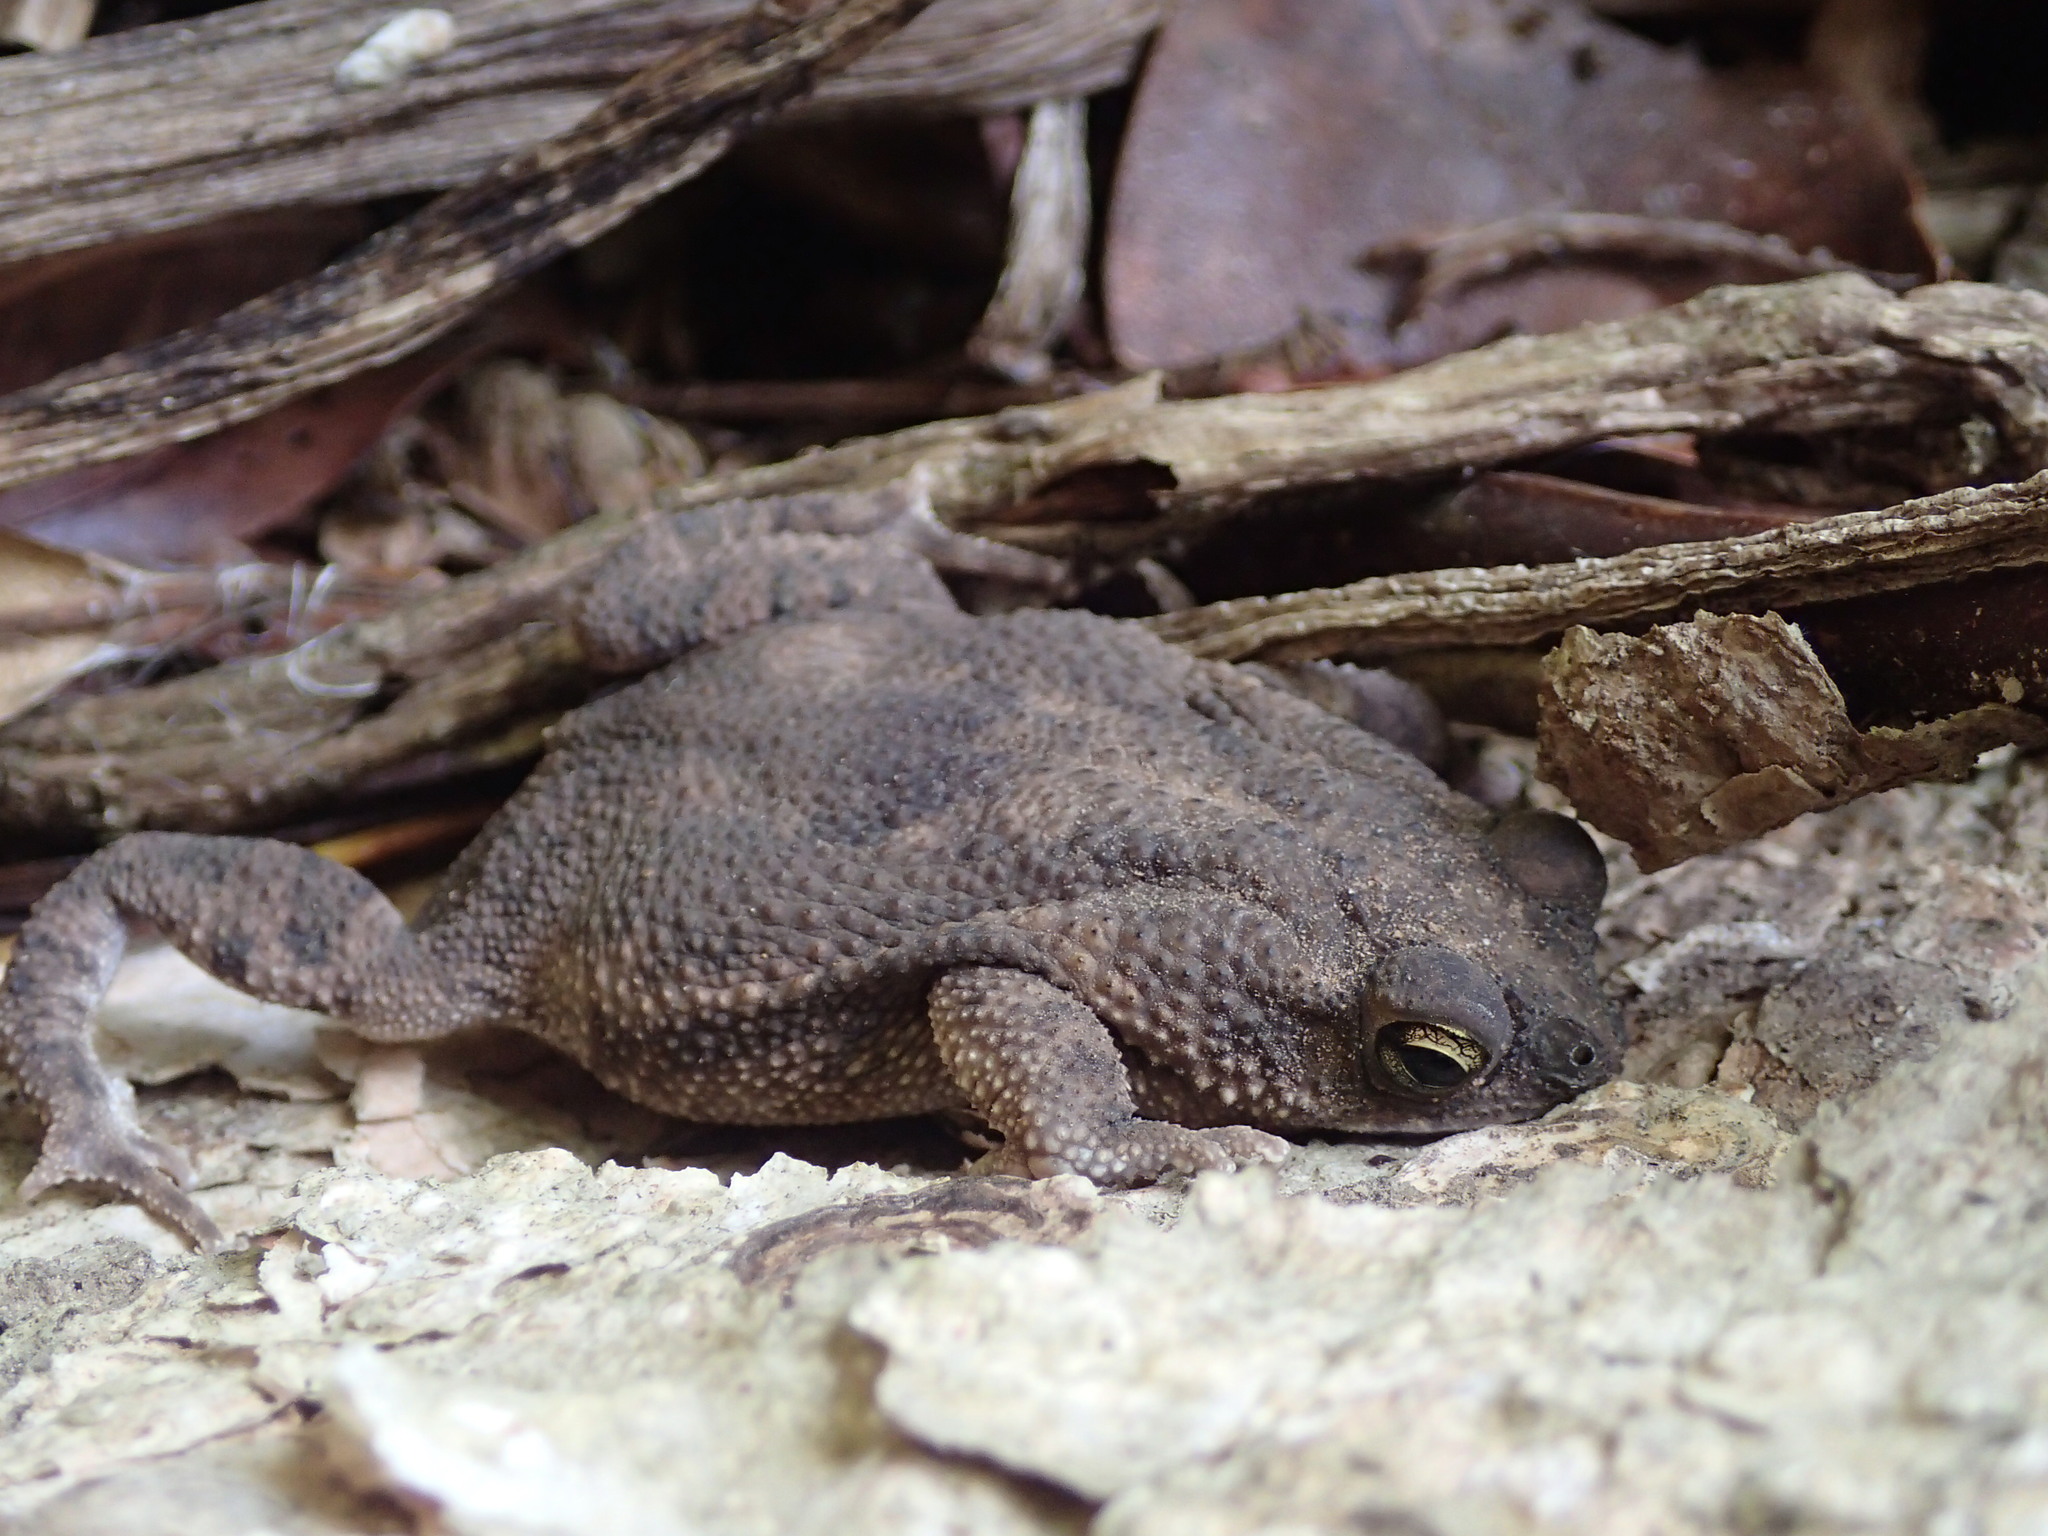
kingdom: Animalia
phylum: Chordata
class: Amphibia
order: Anura
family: Bufonidae
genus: Rhinella
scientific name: Rhinella humboldti
